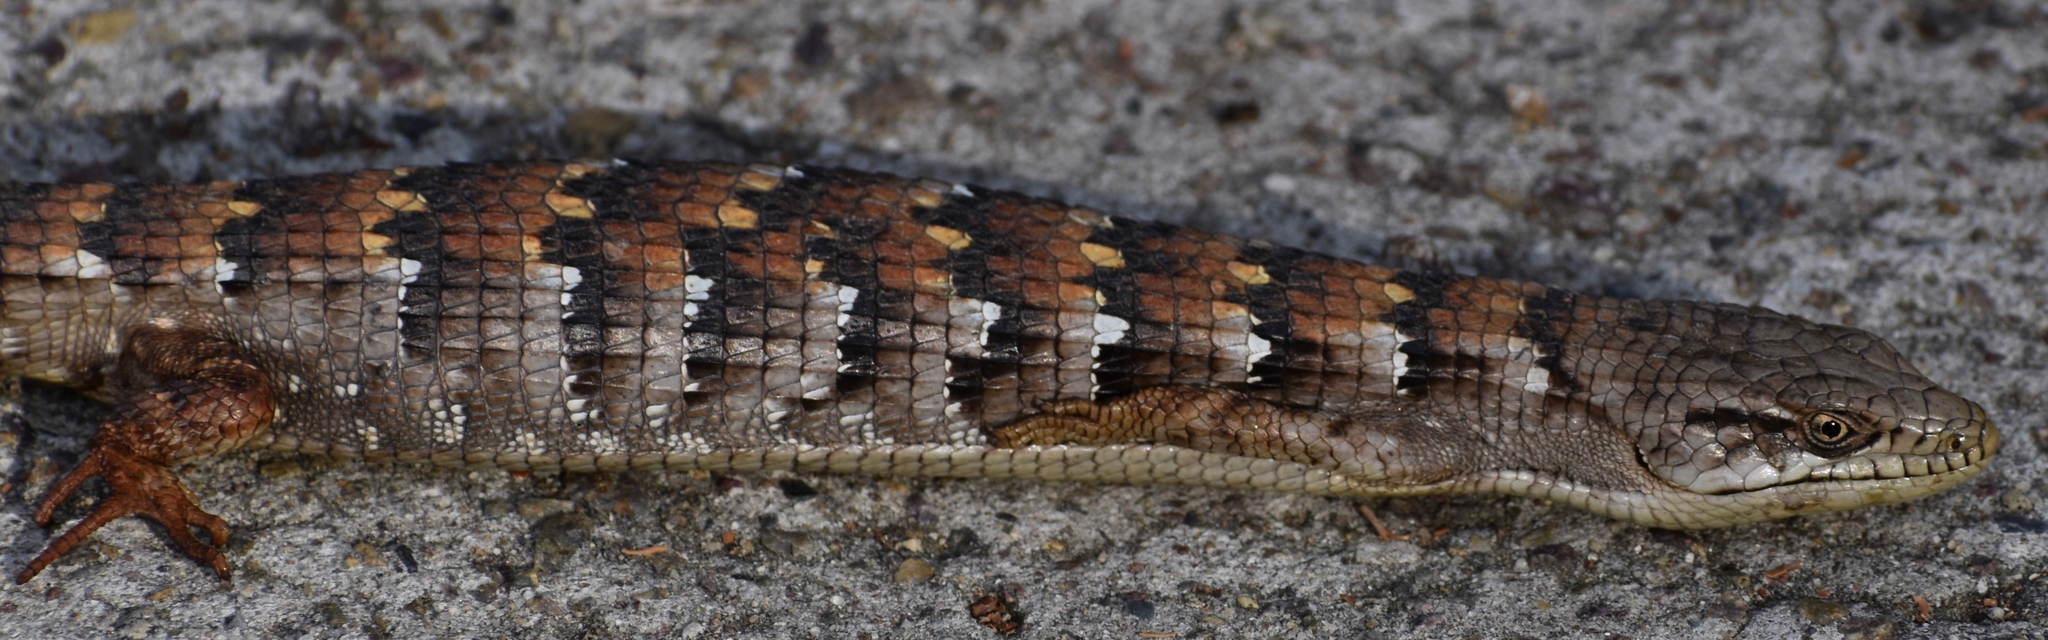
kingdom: Animalia
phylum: Chordata
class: Squamata
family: Anguidae
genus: Elgaria
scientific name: Elgaria multicarinata
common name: Southern alligator lizard
